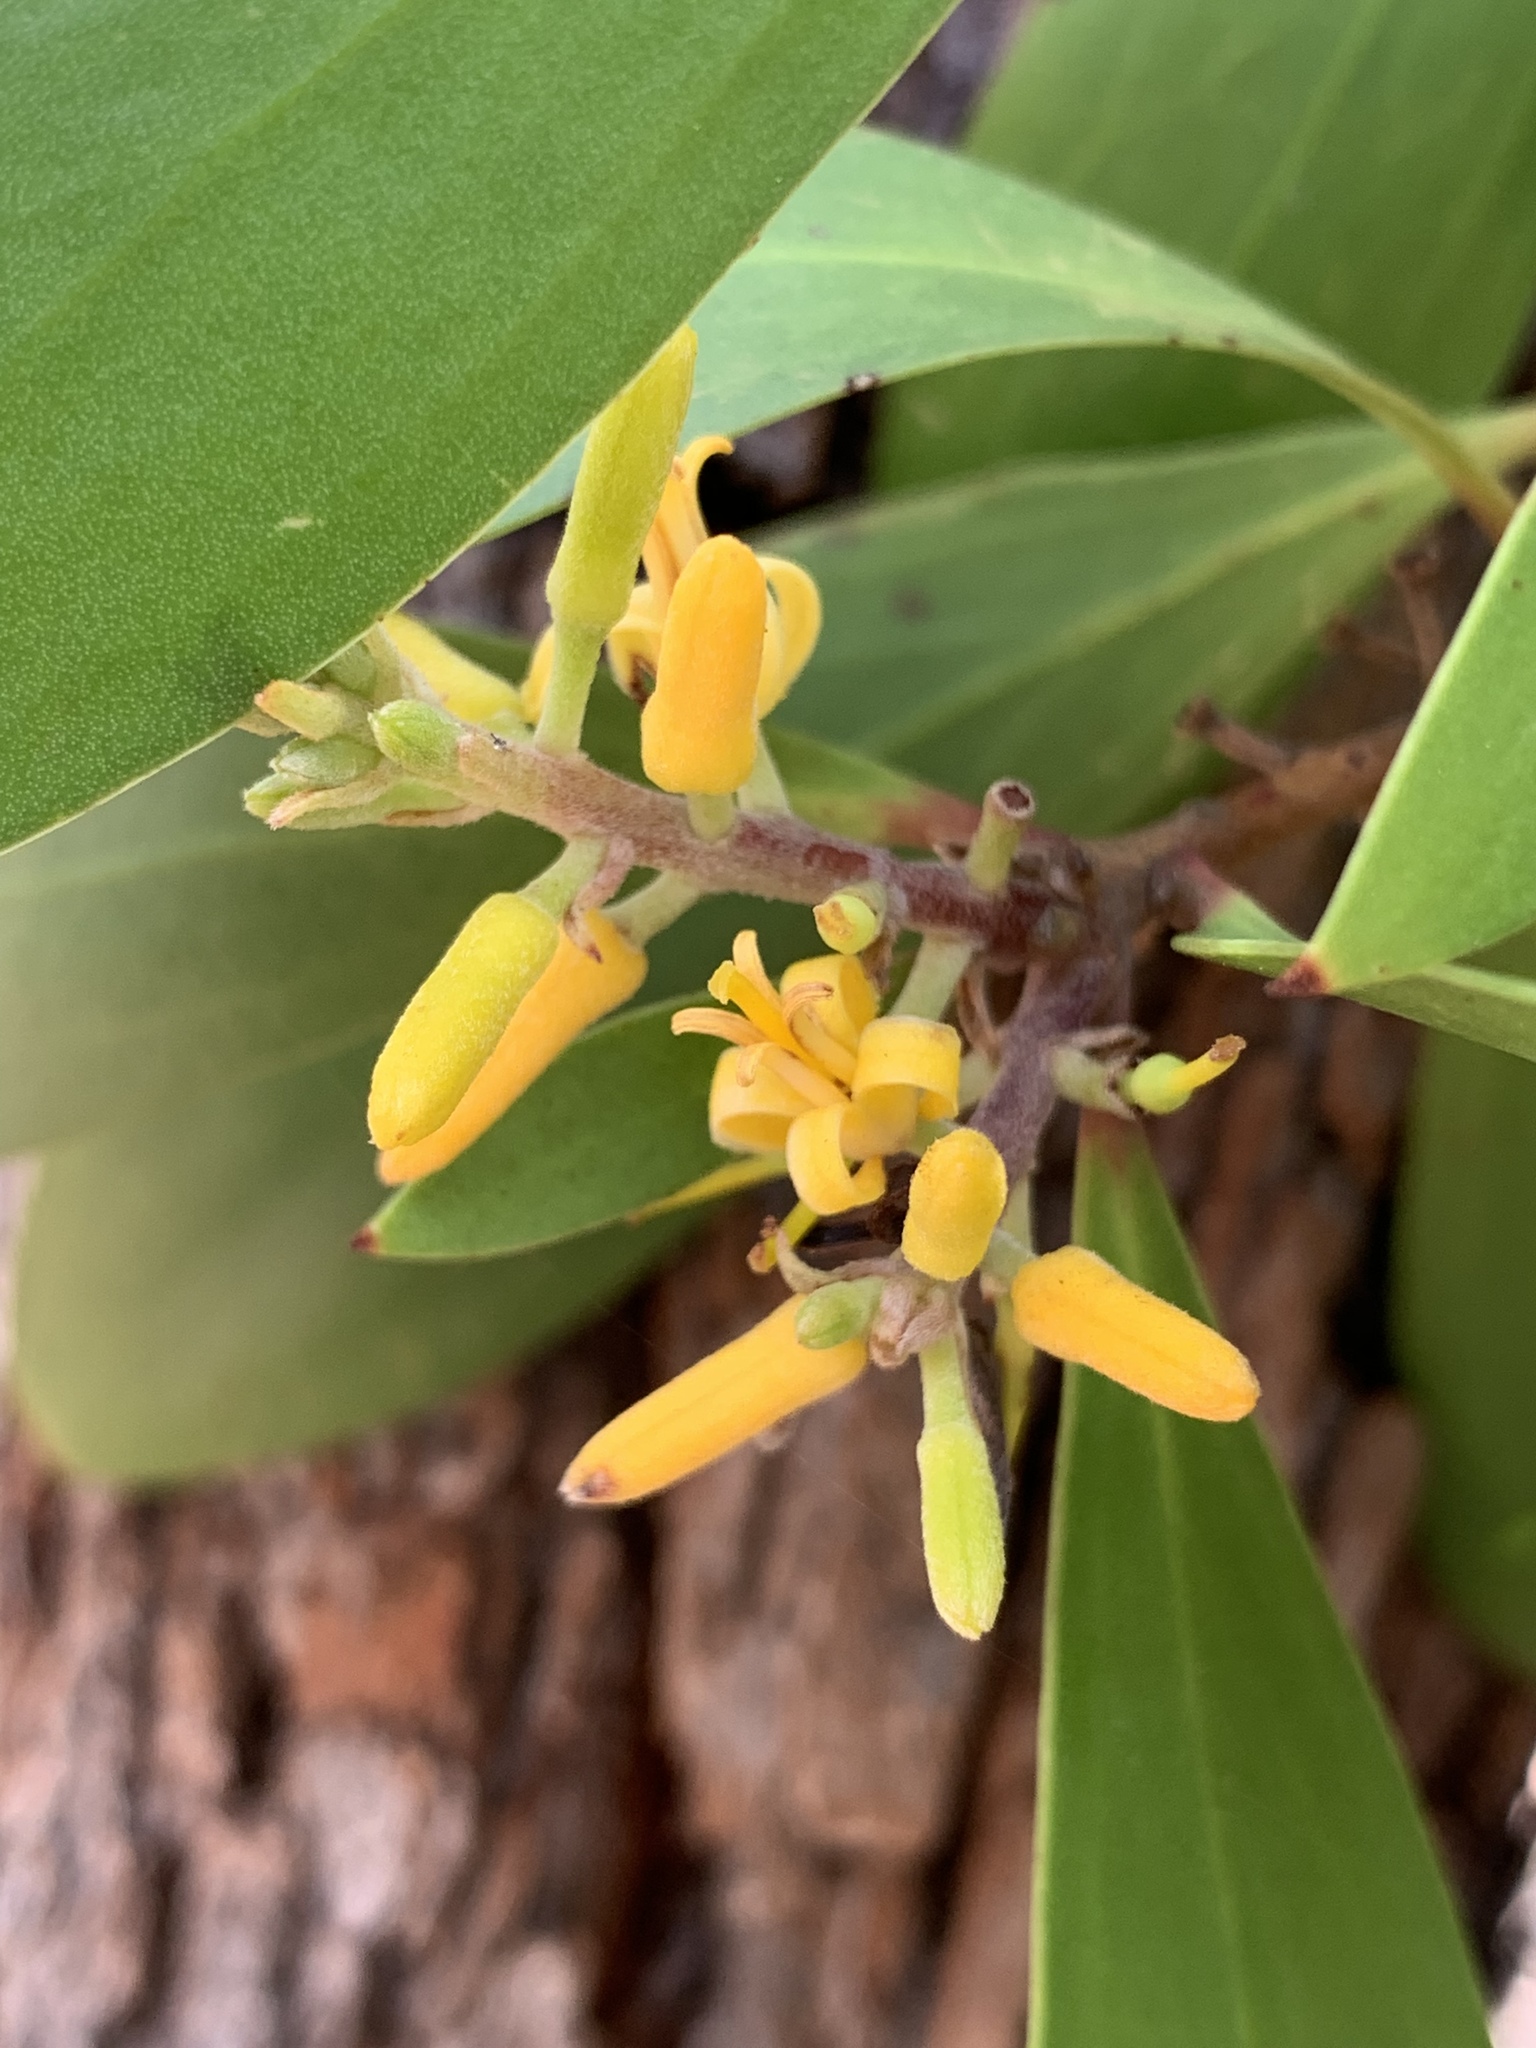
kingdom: Plantae
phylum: Tracheophyta
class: Magnoliopsida
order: Proteales
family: Proteaceae
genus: Persoonia
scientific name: Persoonia levis
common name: Smooth geebung
